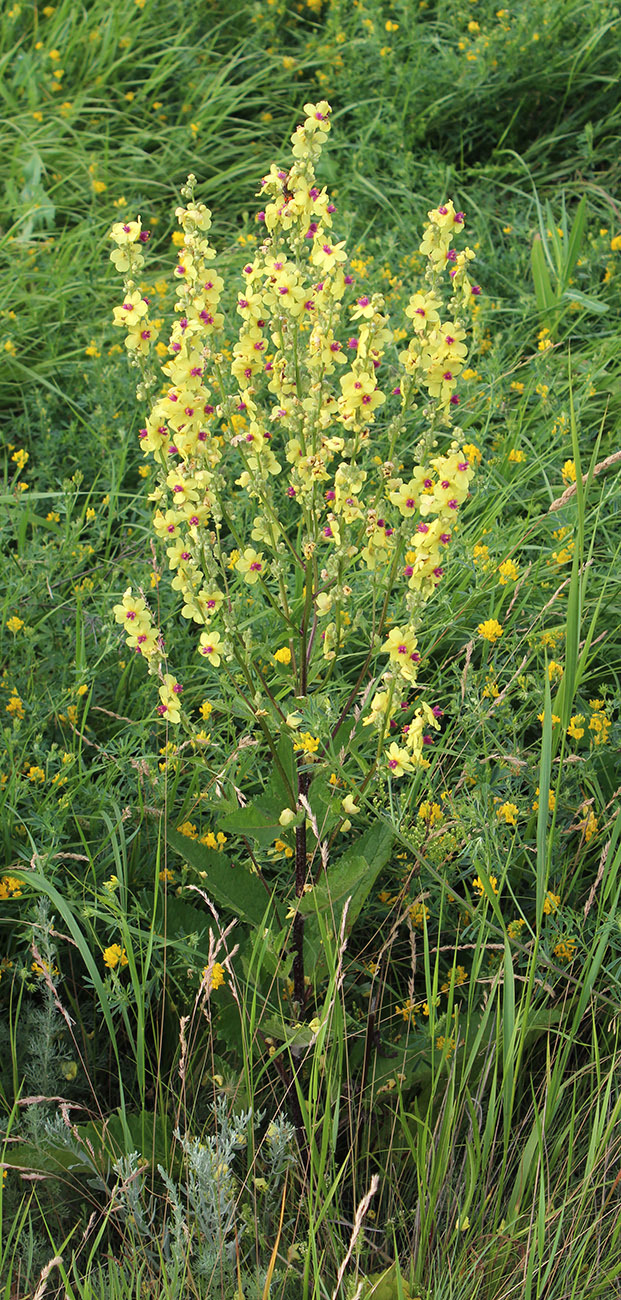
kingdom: Plantae
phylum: Tracheophyta
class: Magnoliopsida
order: Lamiales
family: Scrophulariaceae
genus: Verbascum
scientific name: Verbascum chaixii
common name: Nettle-leaved mullein
